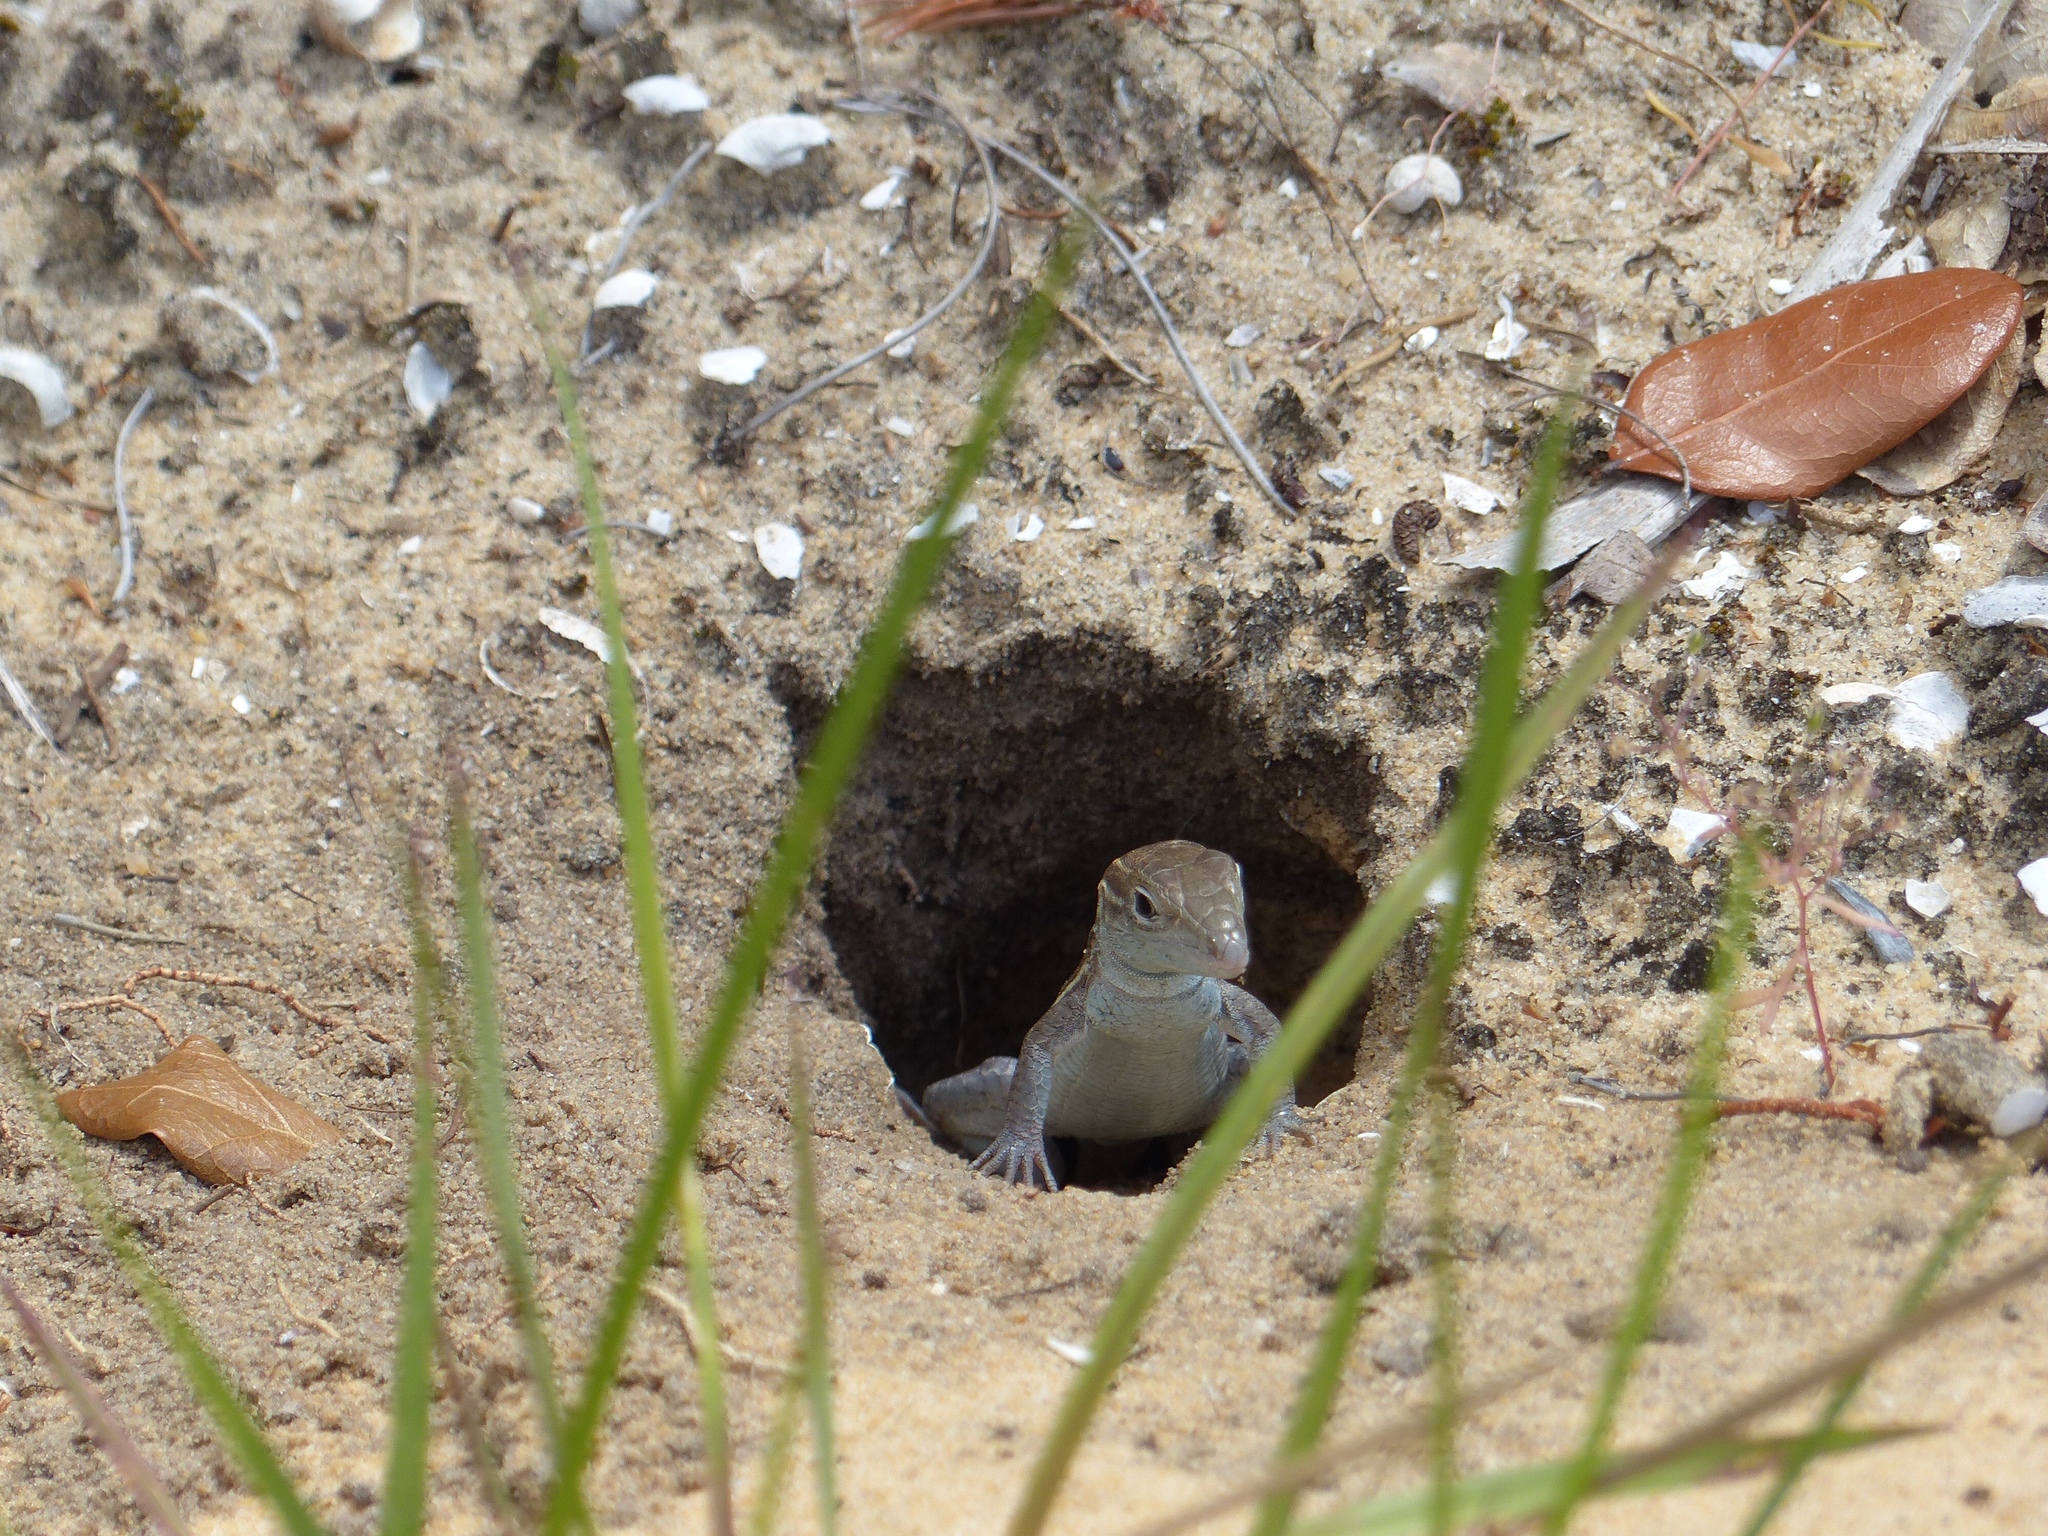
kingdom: Animalia
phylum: Chordata
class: Squamata
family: Teiidae
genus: Aspidoscelis
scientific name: Aspidoscelis sexlineatus
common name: Six-lined racerunner
